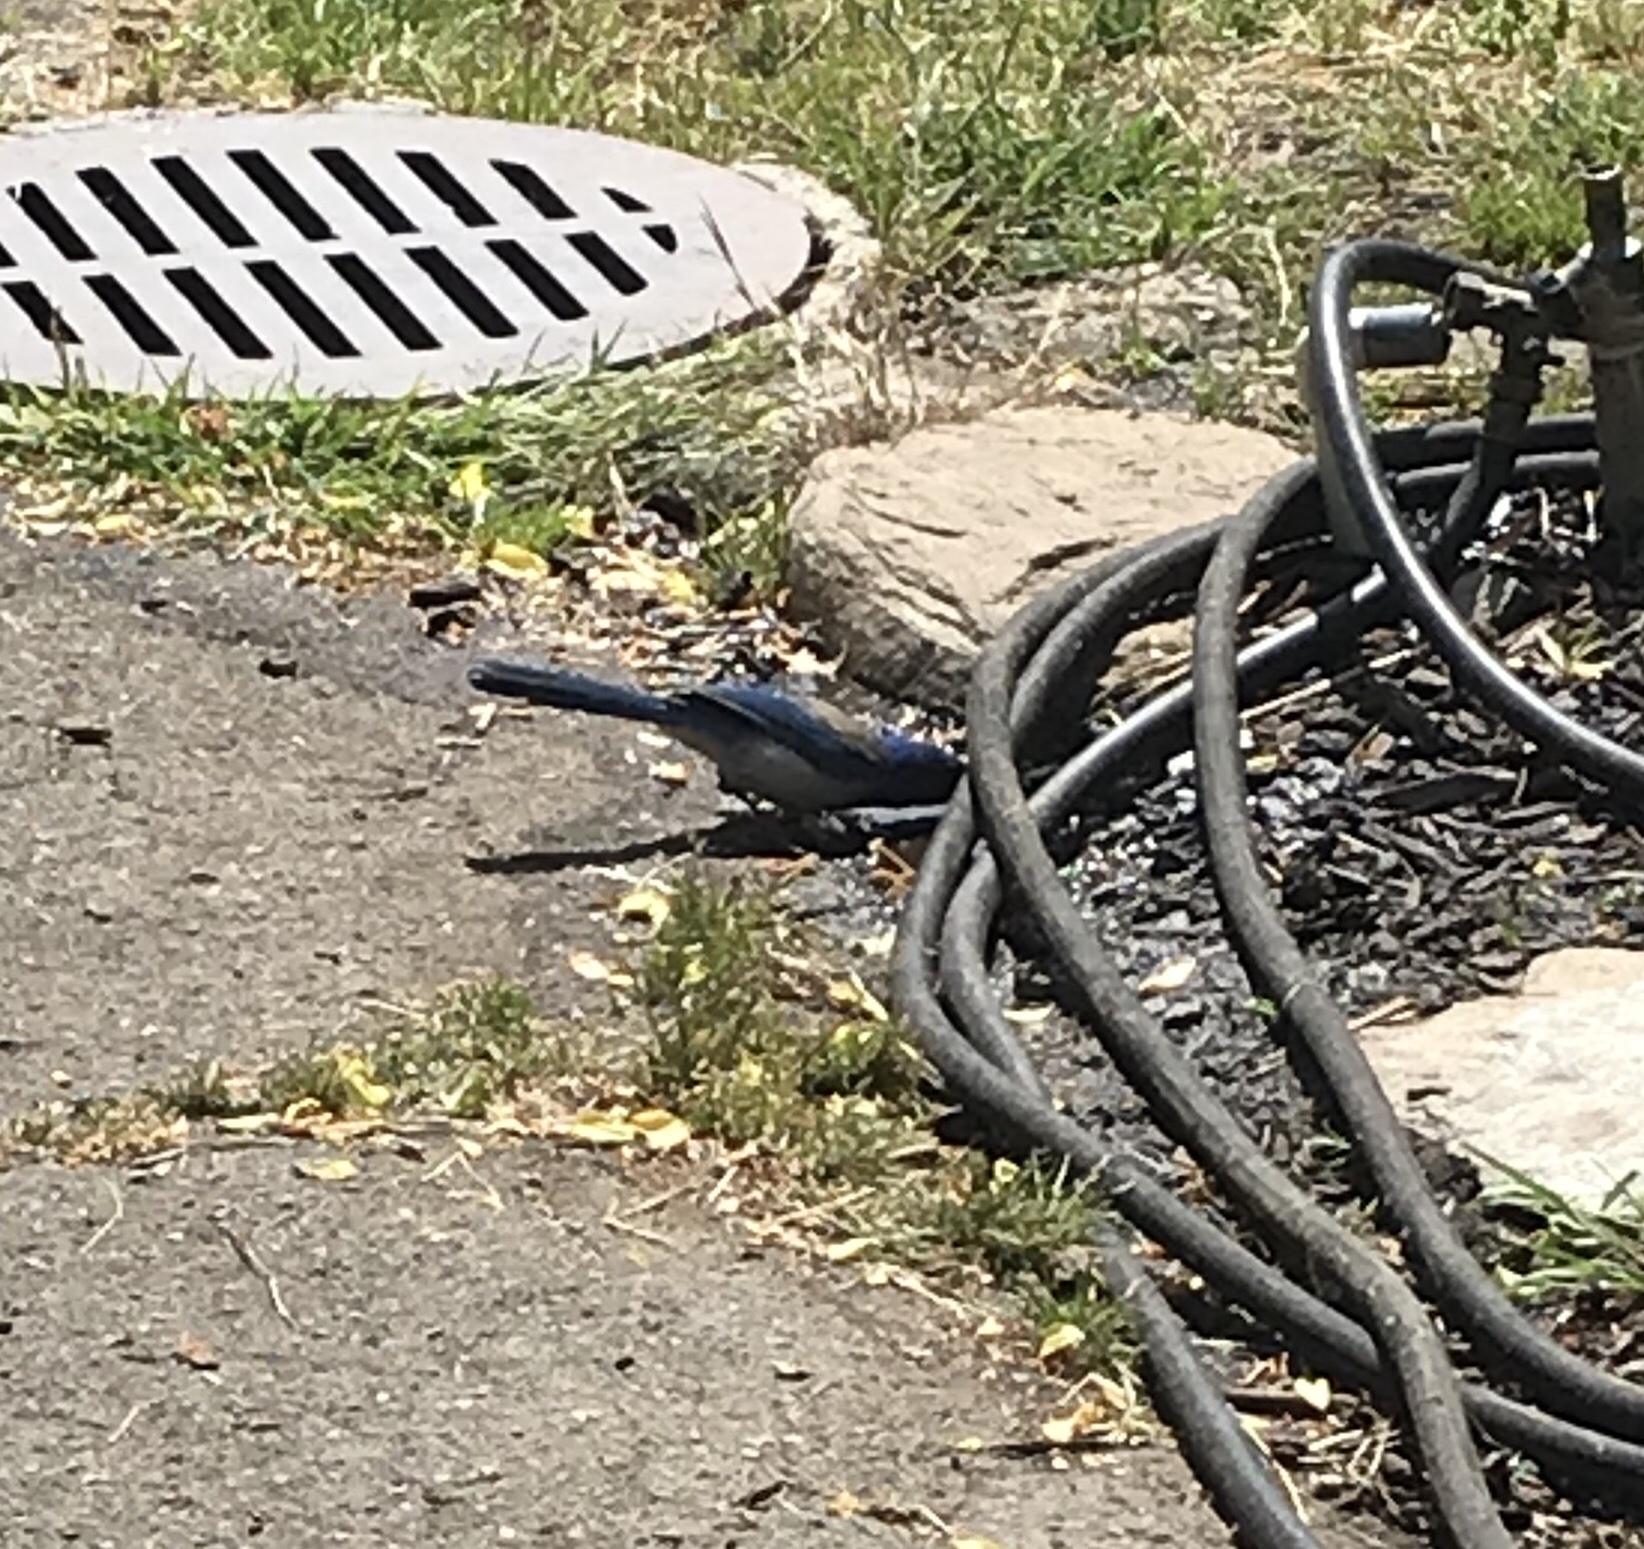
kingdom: Animalia
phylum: Chordata
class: Aves
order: Passeriformes
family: Corvidae
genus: Aphelocoma
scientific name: Aphelocoma californica
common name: California scrub-jay
